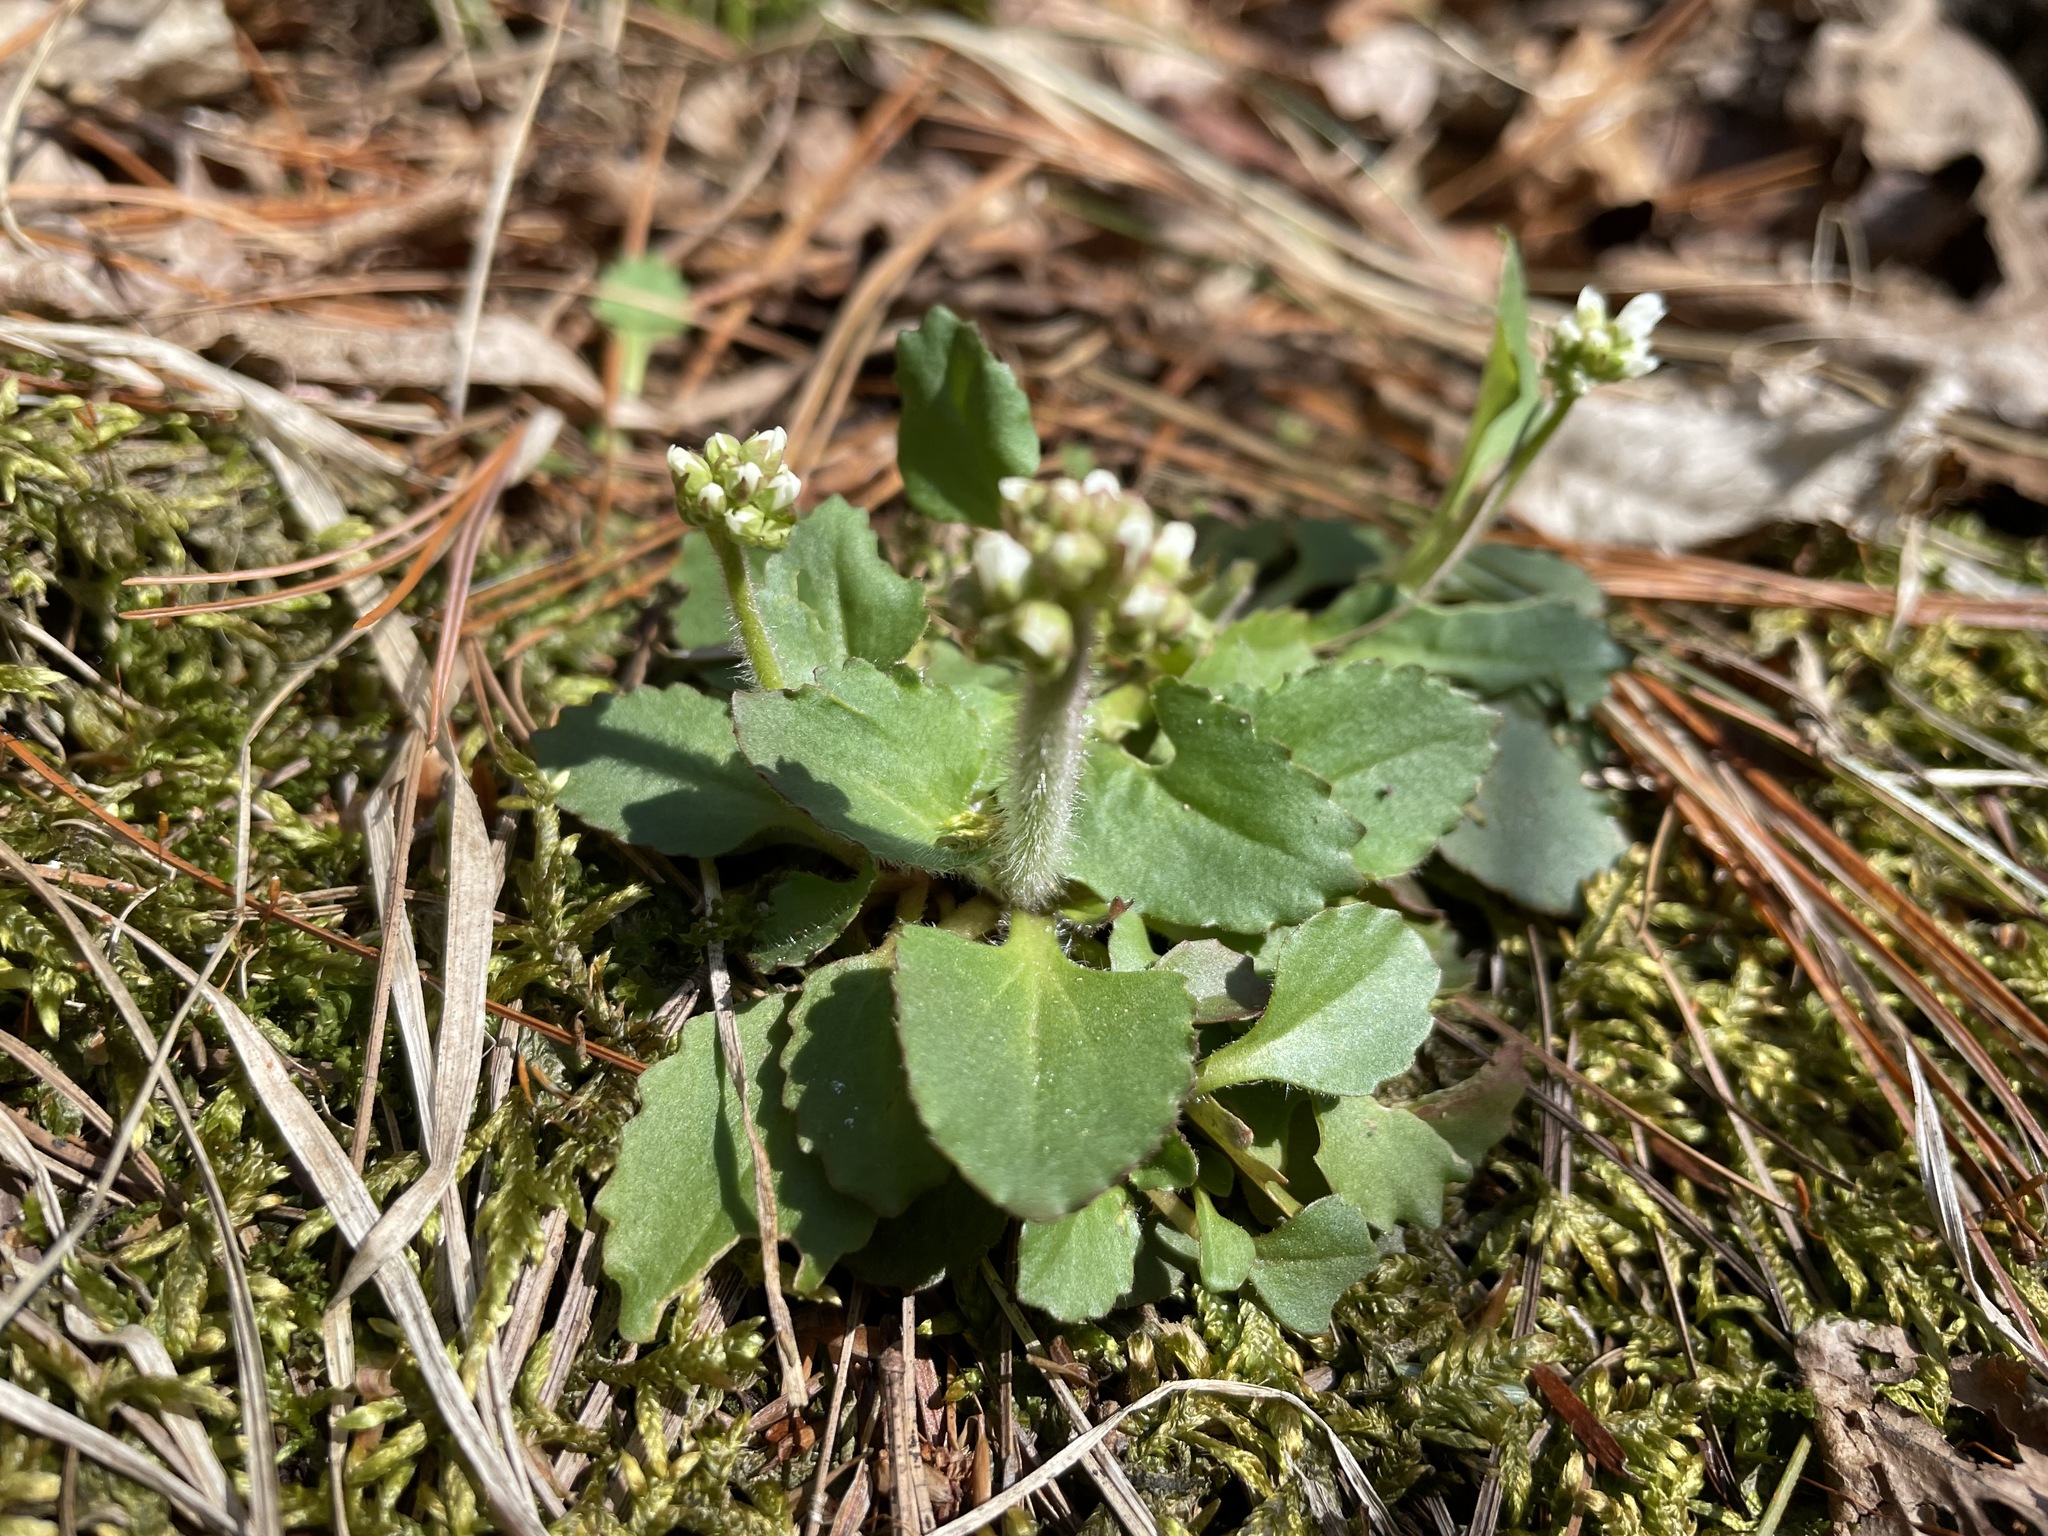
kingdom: Plantae
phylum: Tracheophyta
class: Magnoliopsida
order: Saxifragales
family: Saxifragaceae
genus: Micranthes
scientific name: Micranthes virginiensis
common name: Early saxifrage
